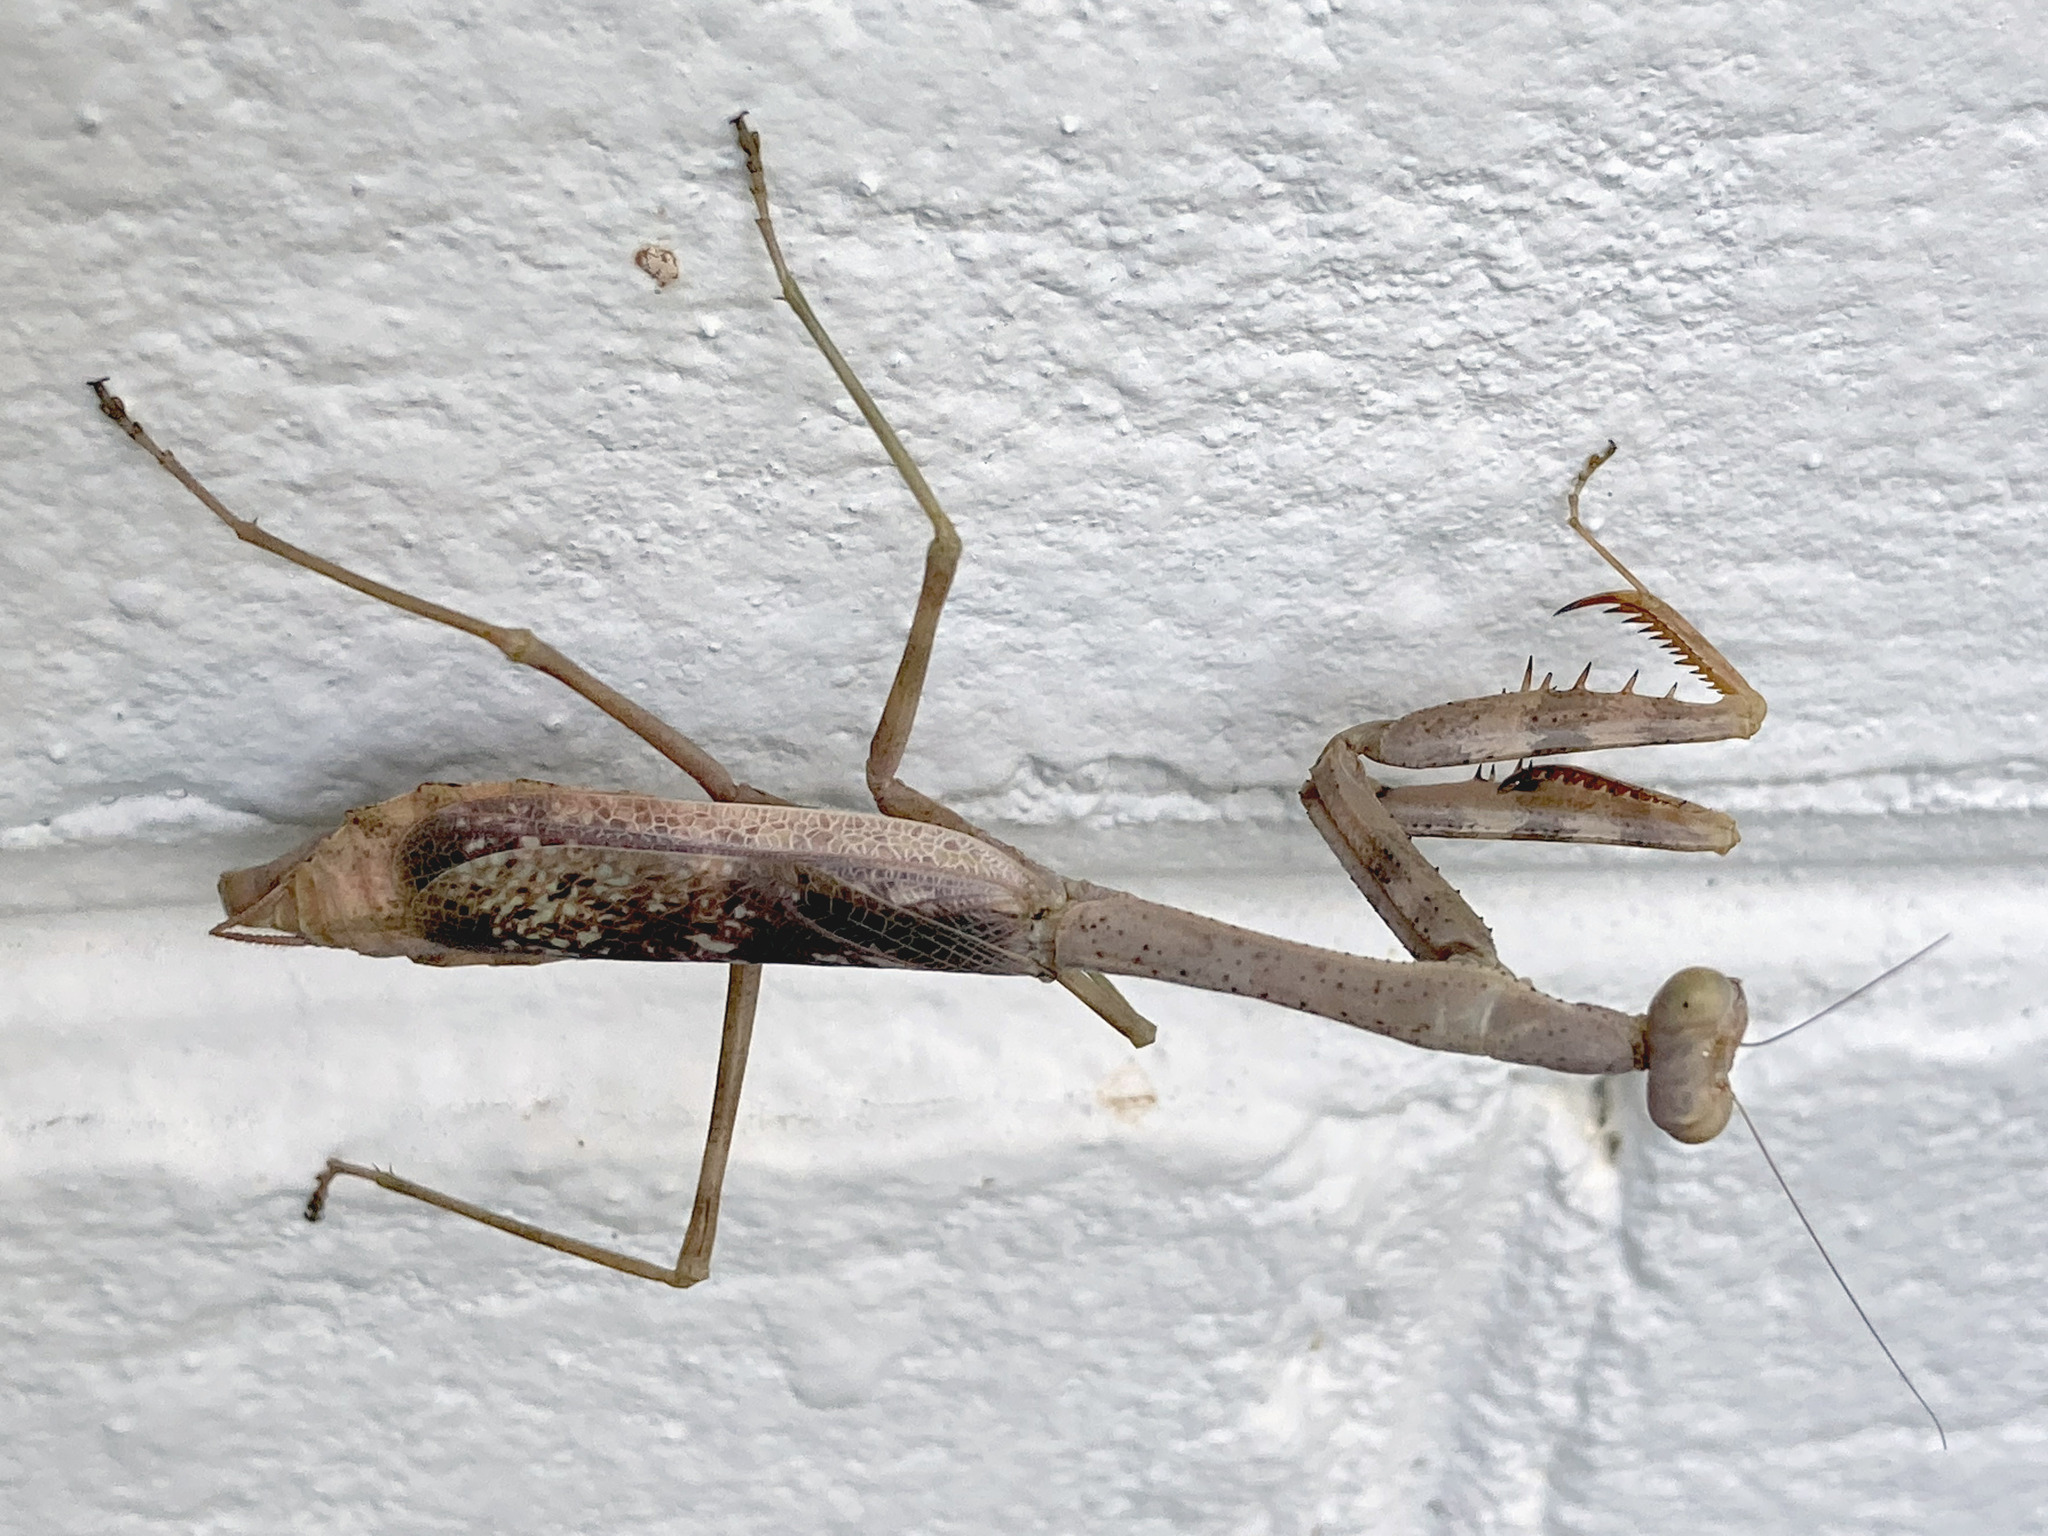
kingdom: Animalia
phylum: Arthropoda
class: Insecta
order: Mantodea
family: Mantidae
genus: Stagmomantis
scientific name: Stagmomantis carolina
